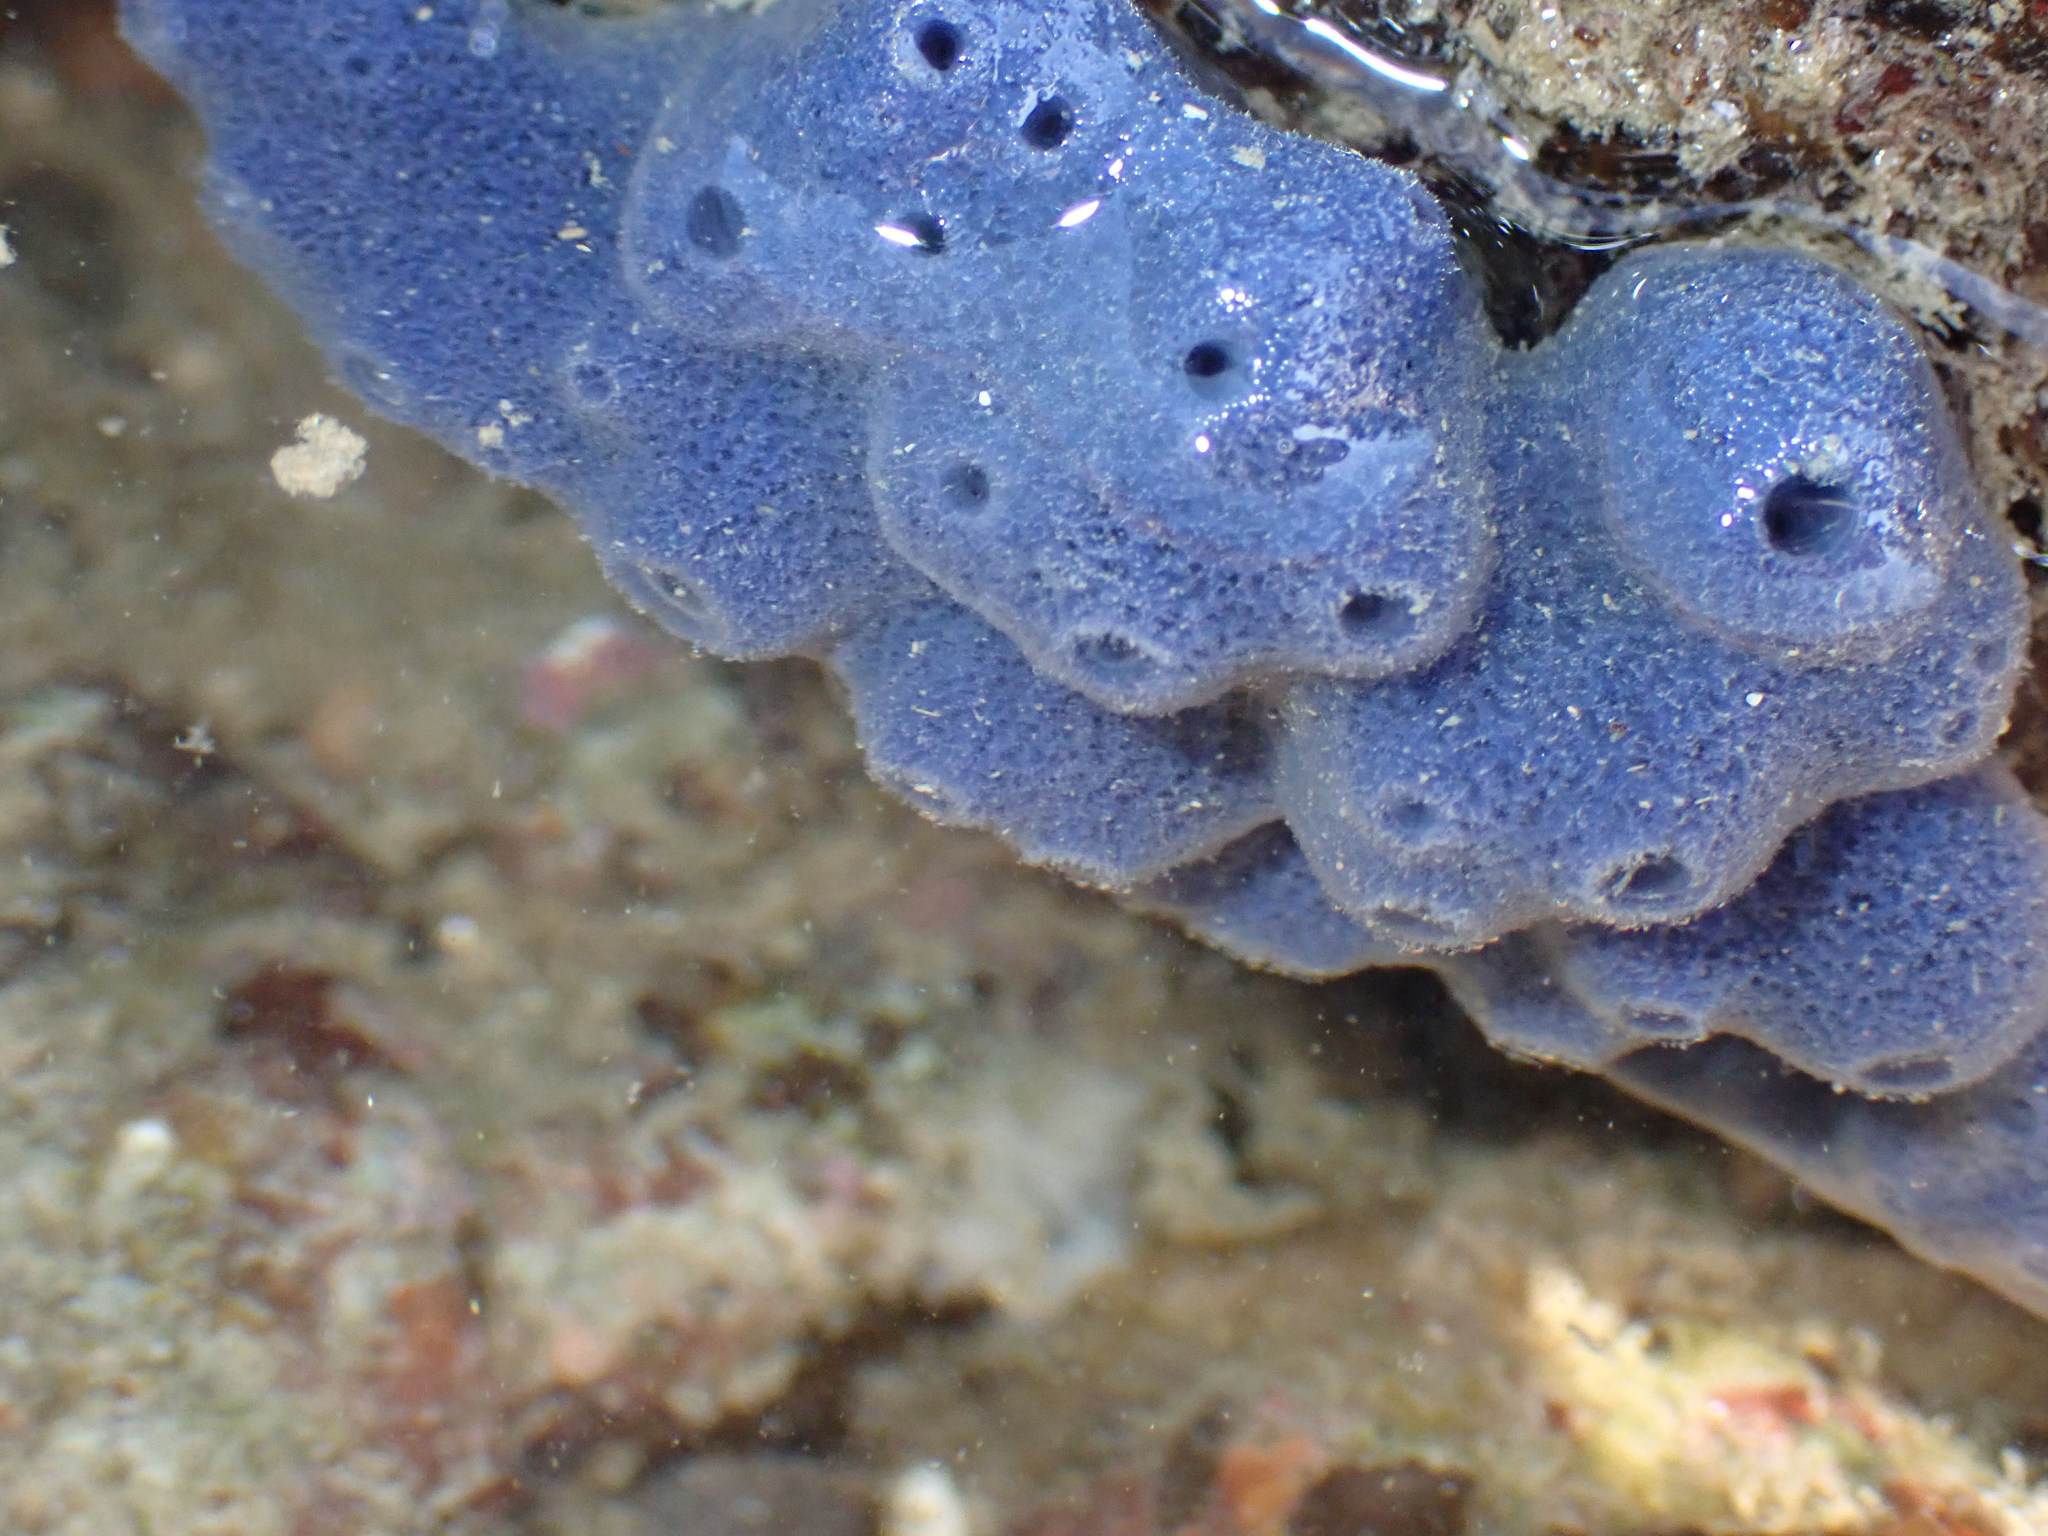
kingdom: Animalia
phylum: Porifera
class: Demospongiae
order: Haplosclerida
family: Niphatidae
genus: Amphimedon
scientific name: Amphimedon queenslandica
